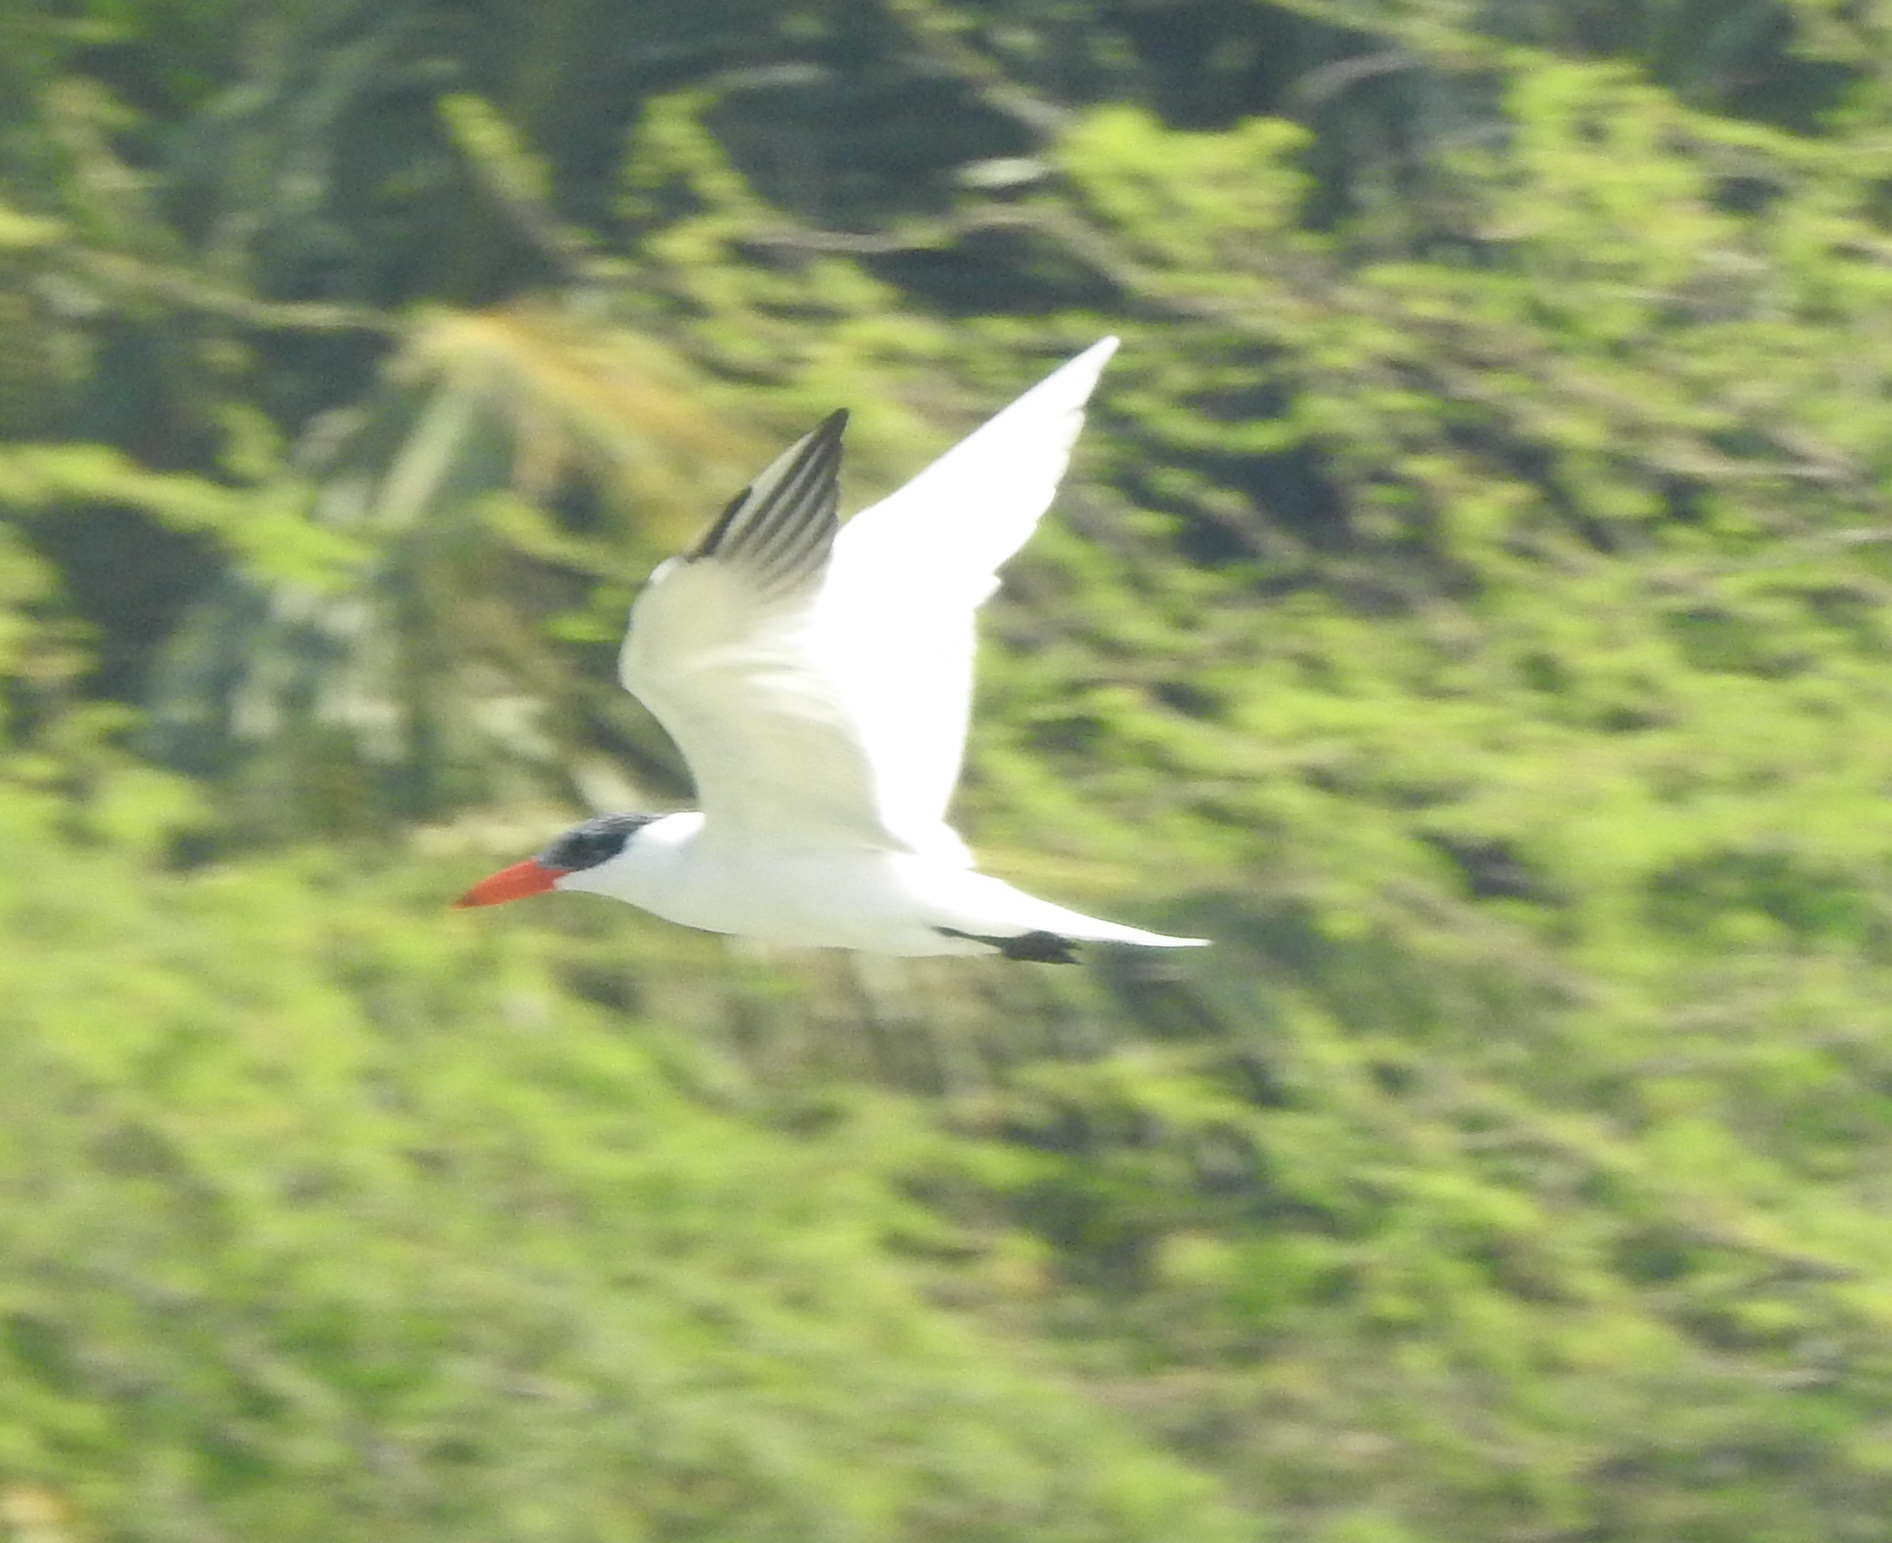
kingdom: Animalia
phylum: Chordata
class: Aves
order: Charadriiformes
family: Laridae
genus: Hydroprogne
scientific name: Hydroprogne caspia
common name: Caspian tern
